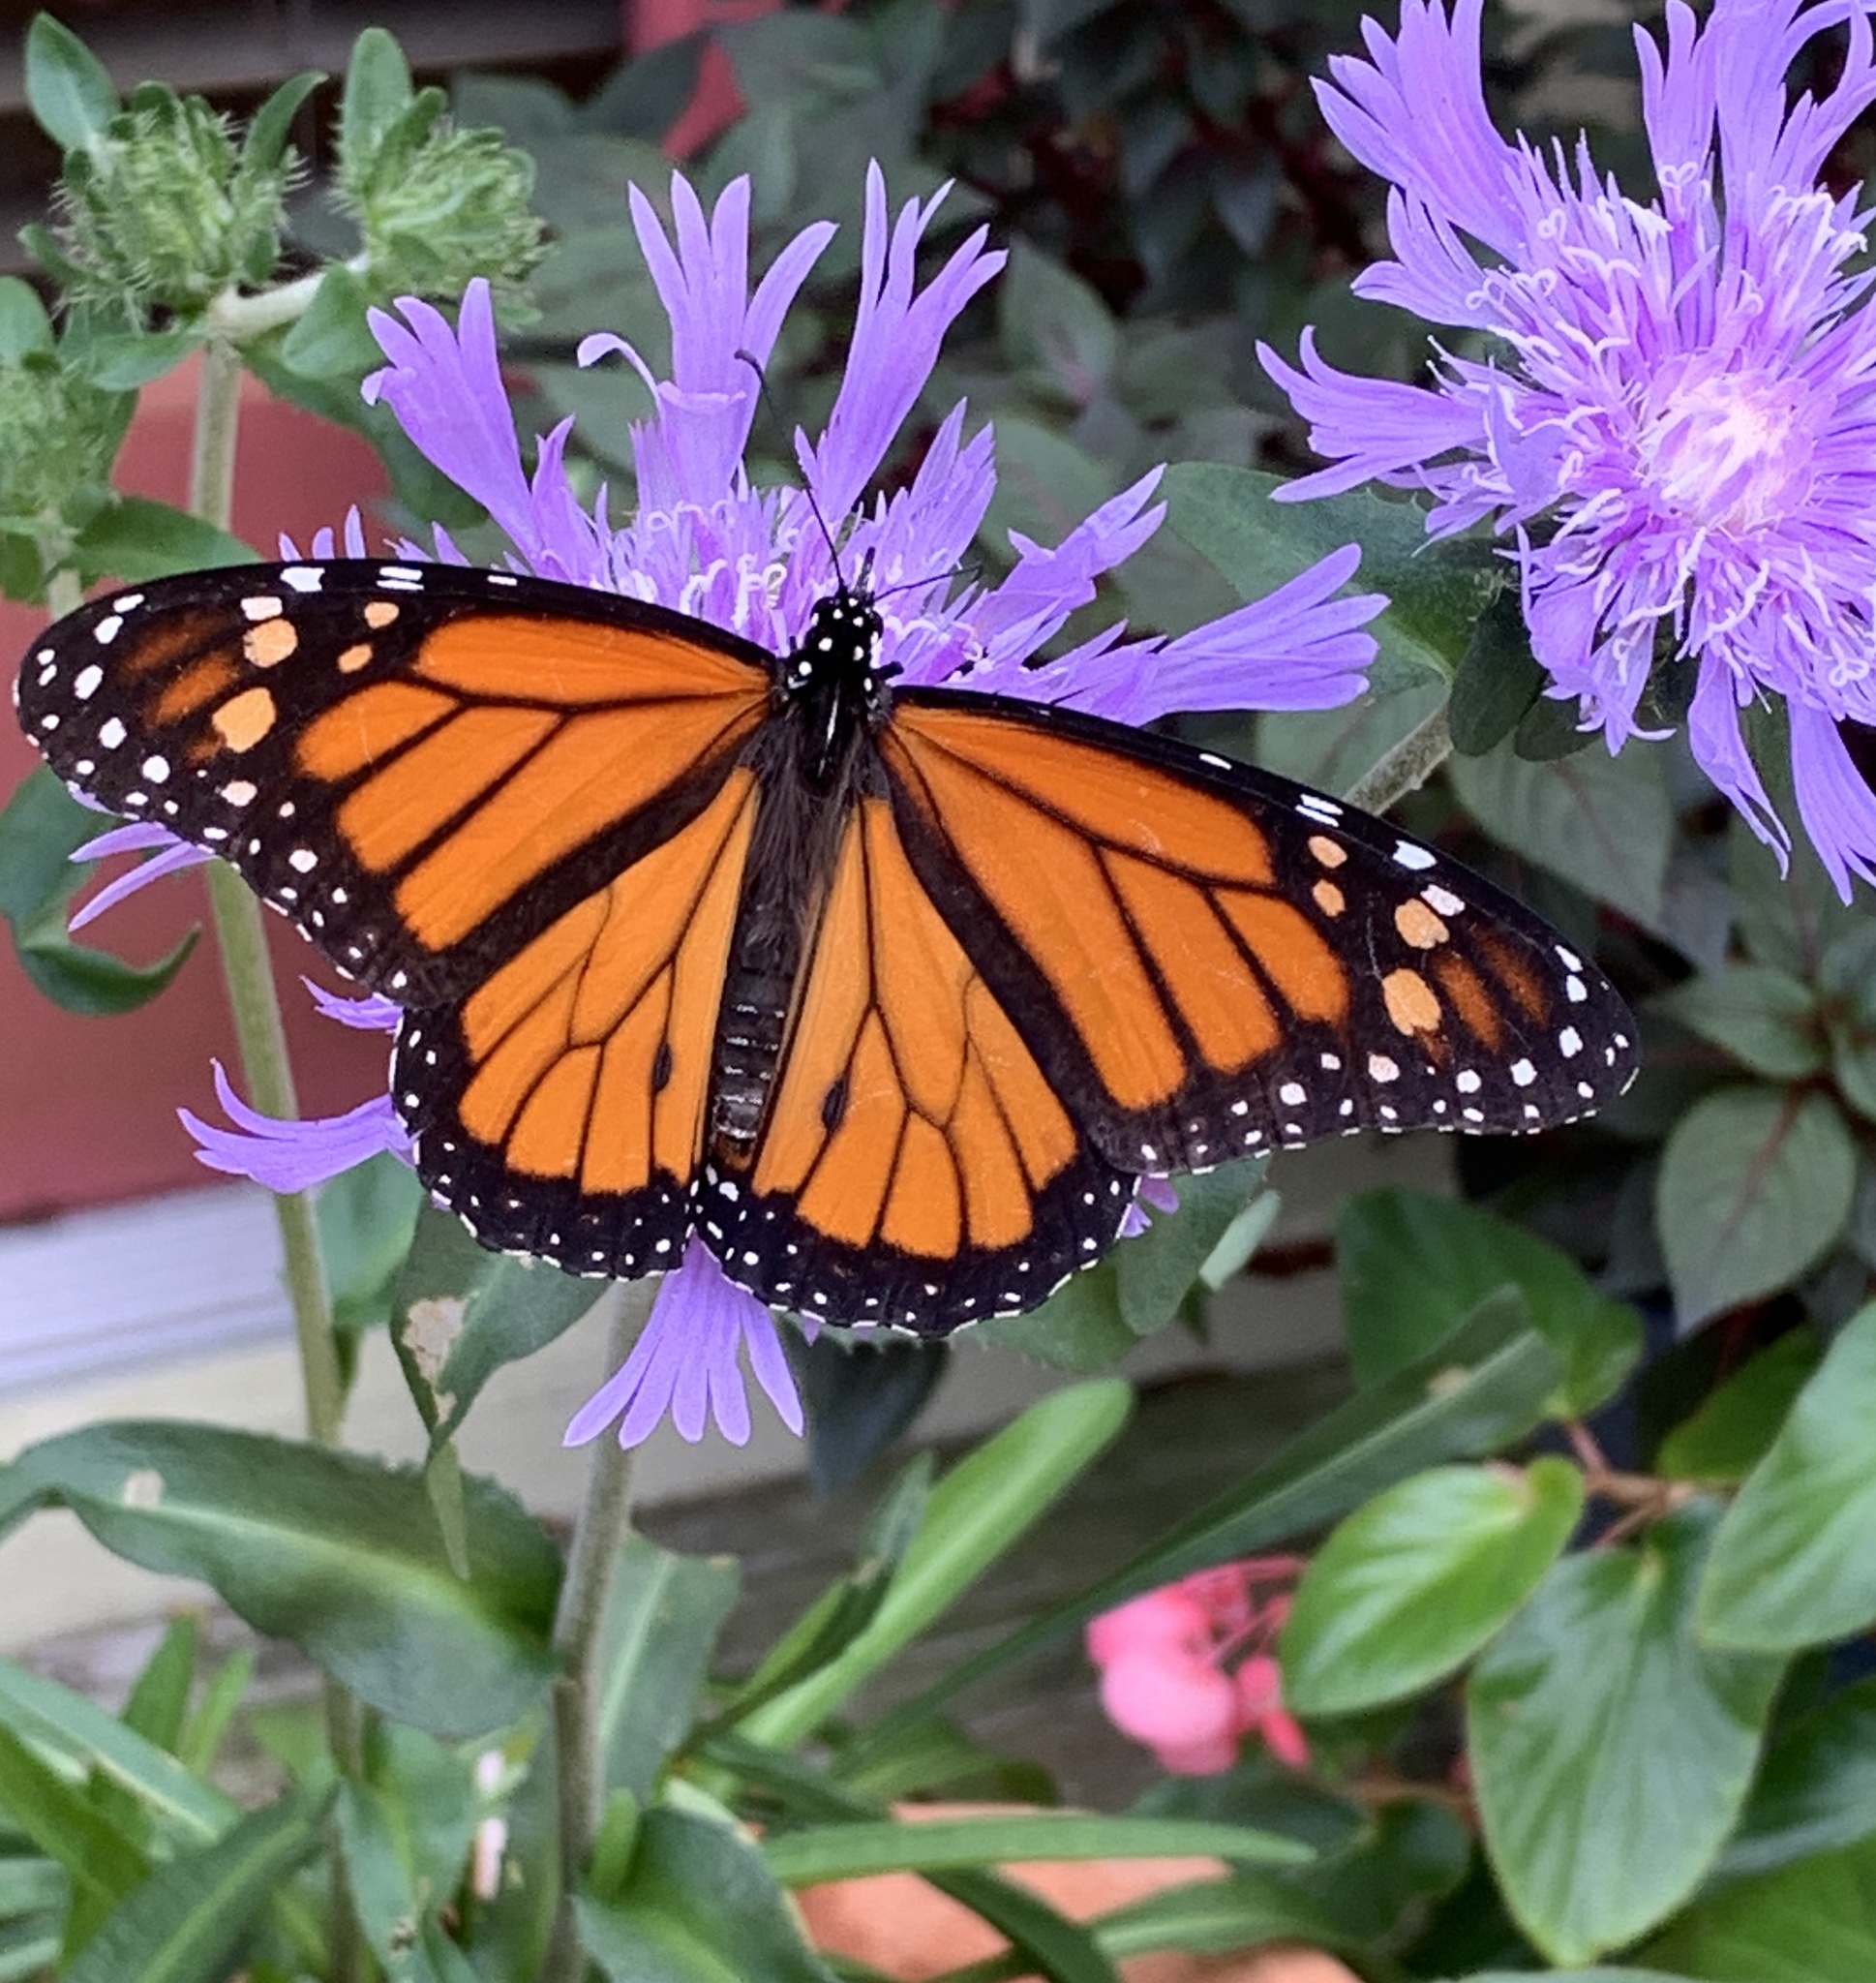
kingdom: Animalia
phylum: Arthropoda
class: Insecta
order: Lepidoptera
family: Nymphalidae
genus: Danaus
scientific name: Danaus plexippus
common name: Monarch
